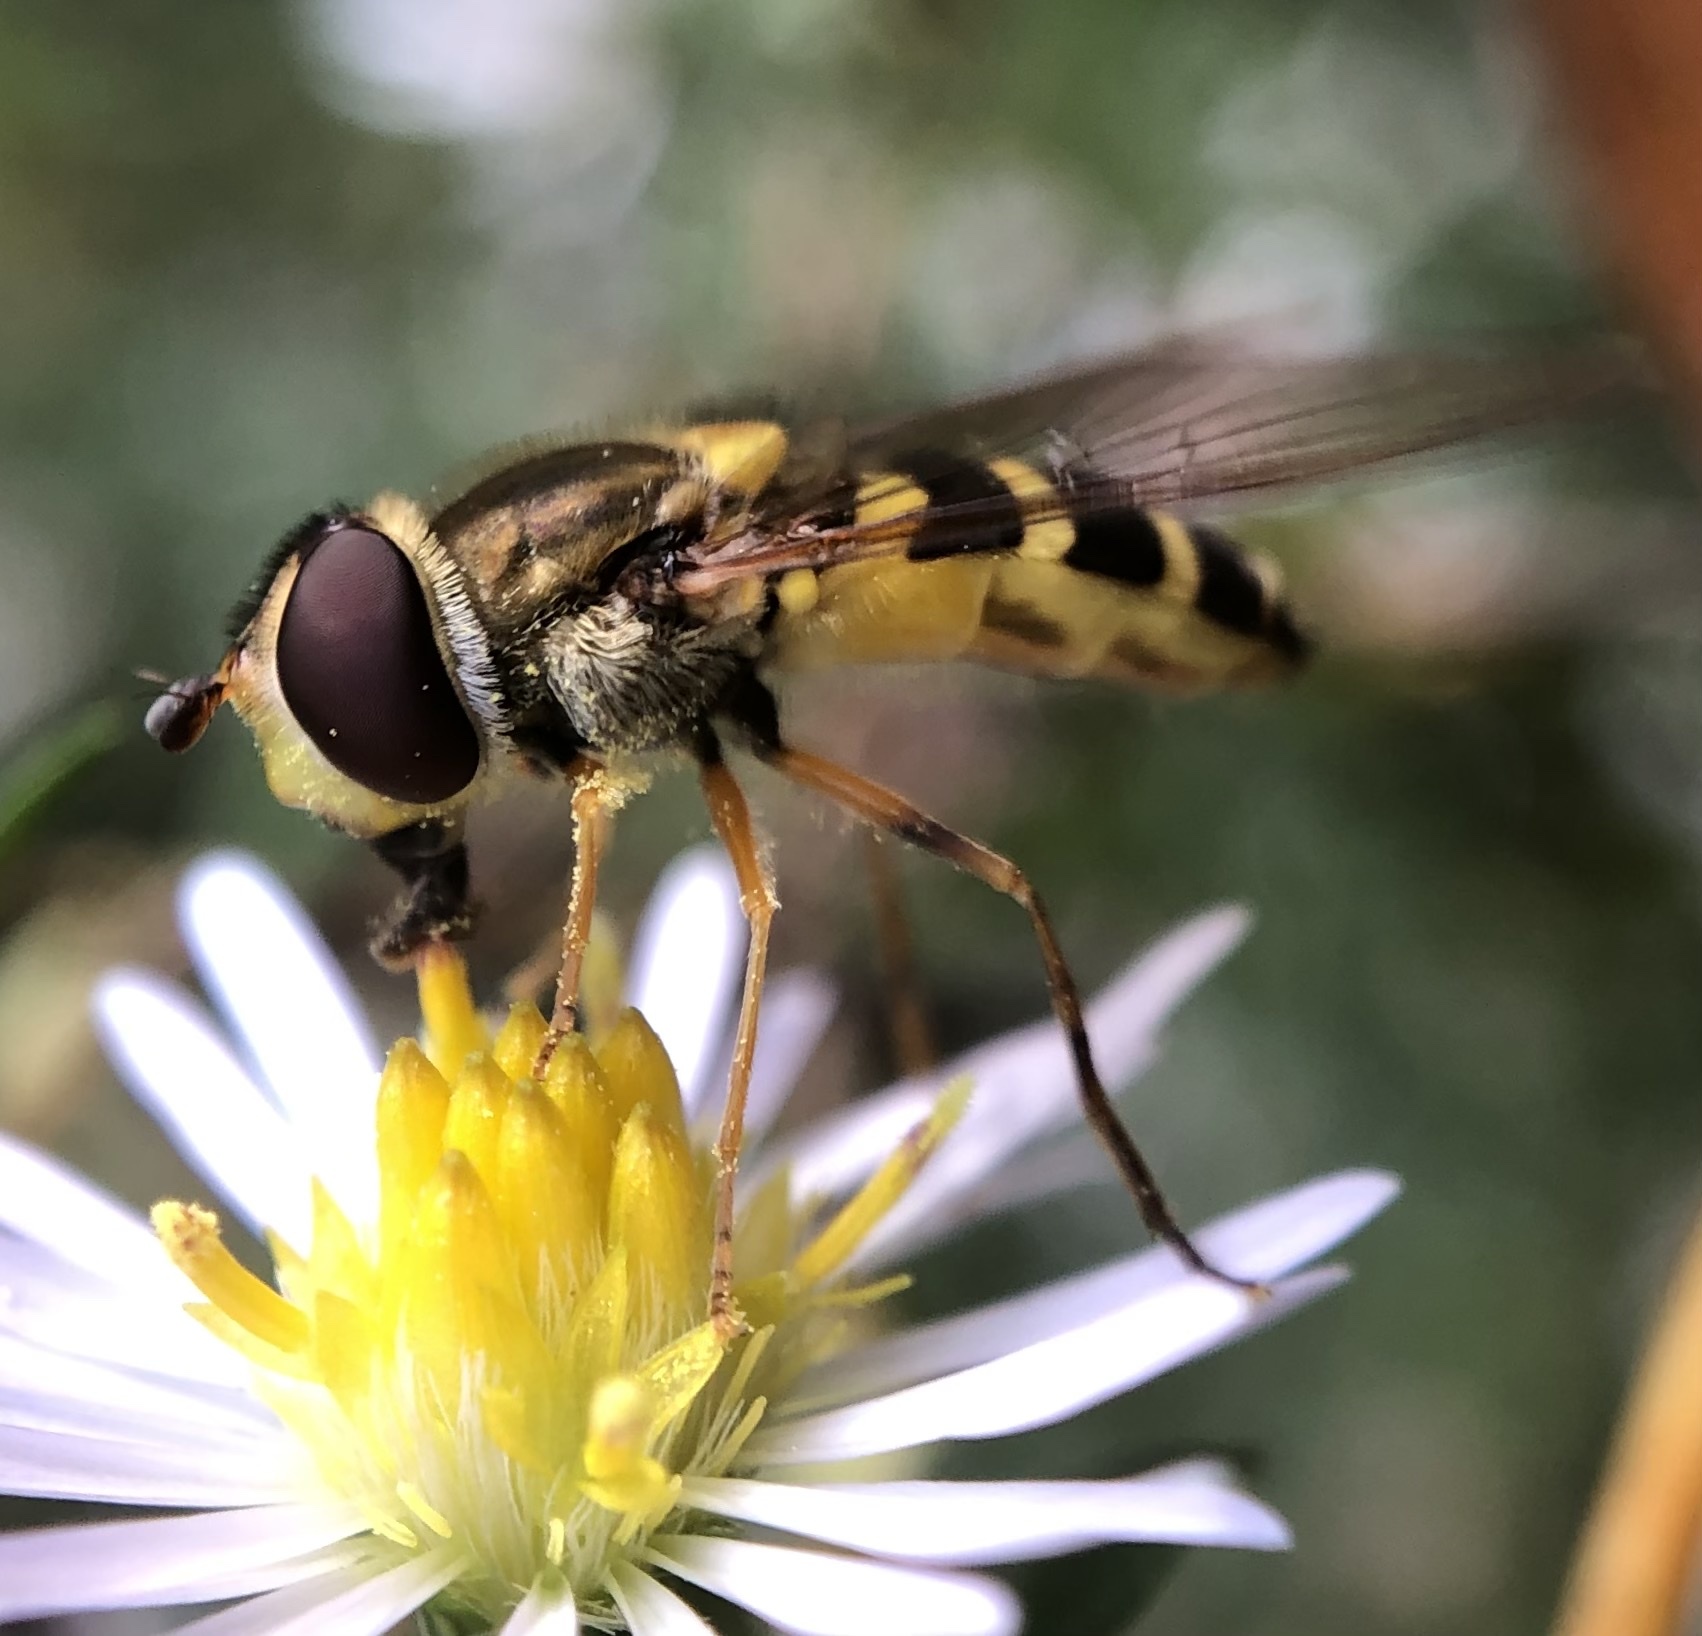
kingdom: Animalia
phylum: Arthropoda
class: Insecta
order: Diptera
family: Syrphidae
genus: Syrphus
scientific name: Syrphus rectus
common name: Yellow-legged flower fly
